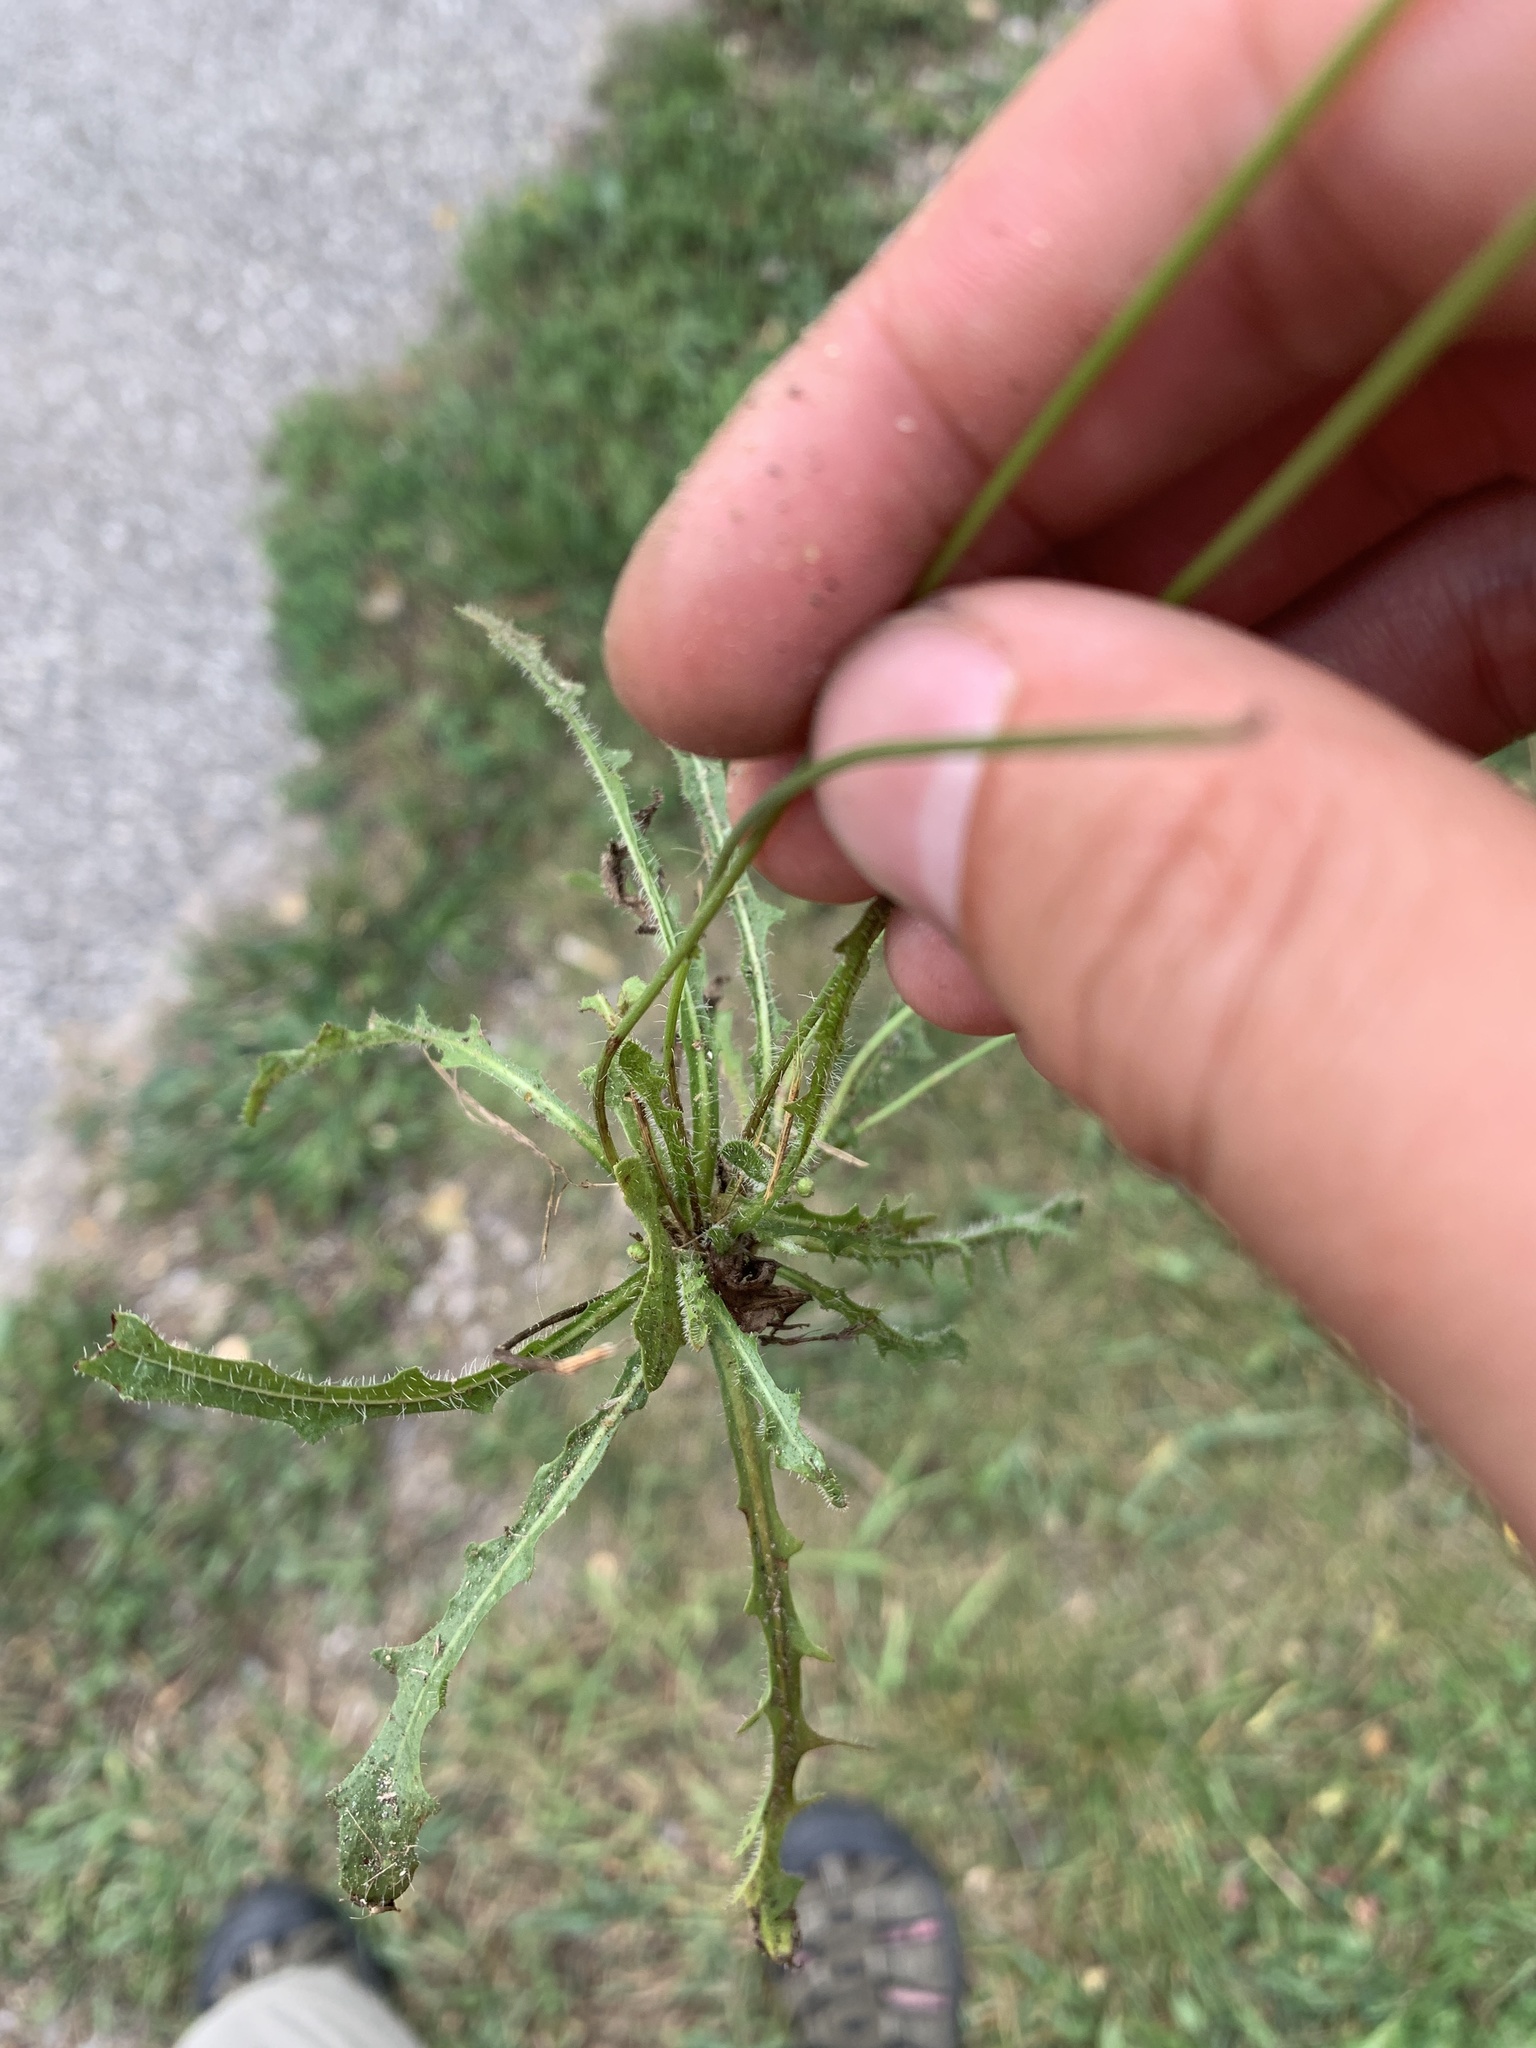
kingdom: Plantae
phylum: Tracheophyta
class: Magnoliopsida
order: Asterales
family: Asteraceae
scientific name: Asteraceae
